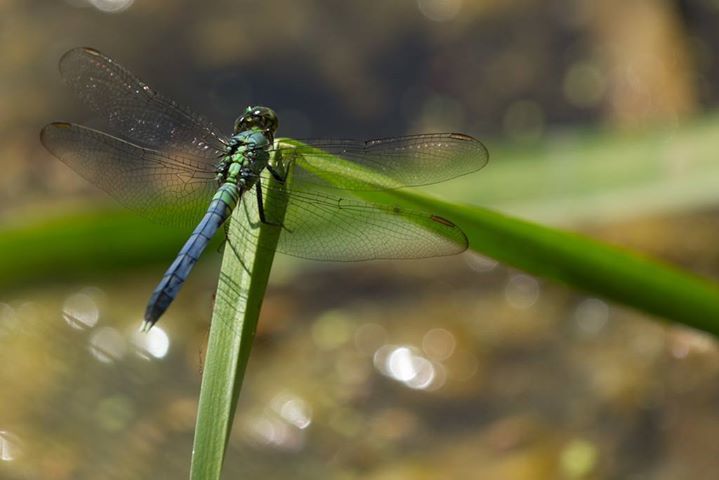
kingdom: Animalia
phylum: Arthropoda
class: Insecta
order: Odonata
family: Libellulidae
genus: Erythemis
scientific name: Erythemis simplicicollis
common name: Eastern pondhawk
